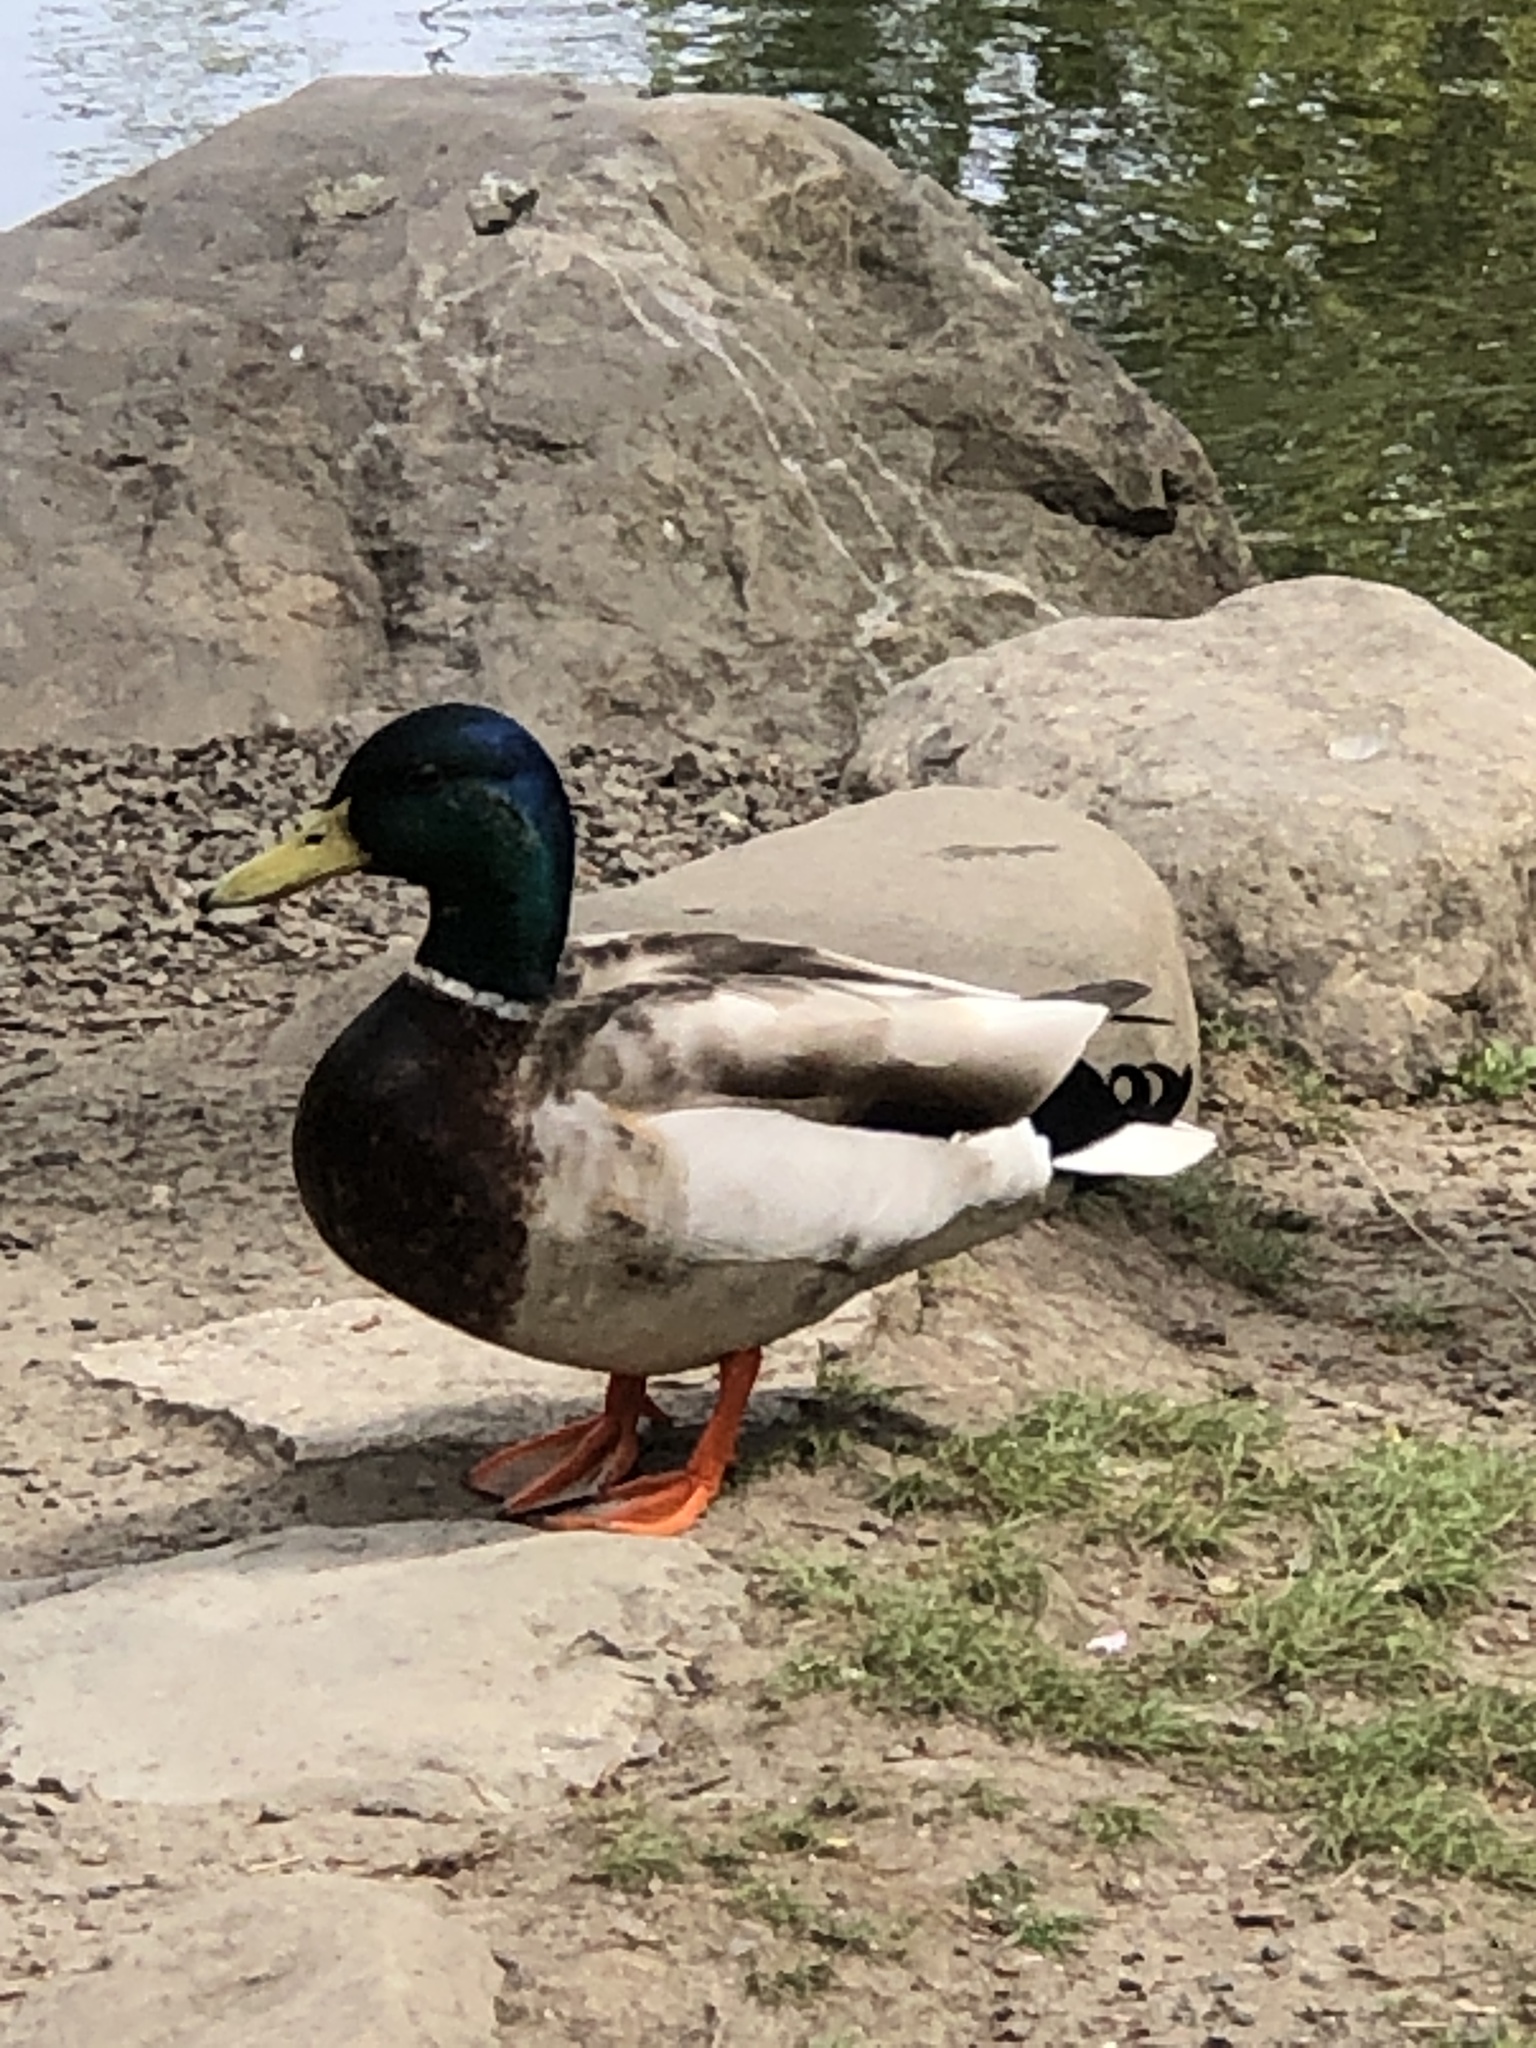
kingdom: Animalia
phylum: Chordata
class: Aves
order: Anseriformes
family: Anatidae
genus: Anas
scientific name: Anas platyrhynchos
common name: Mallard
